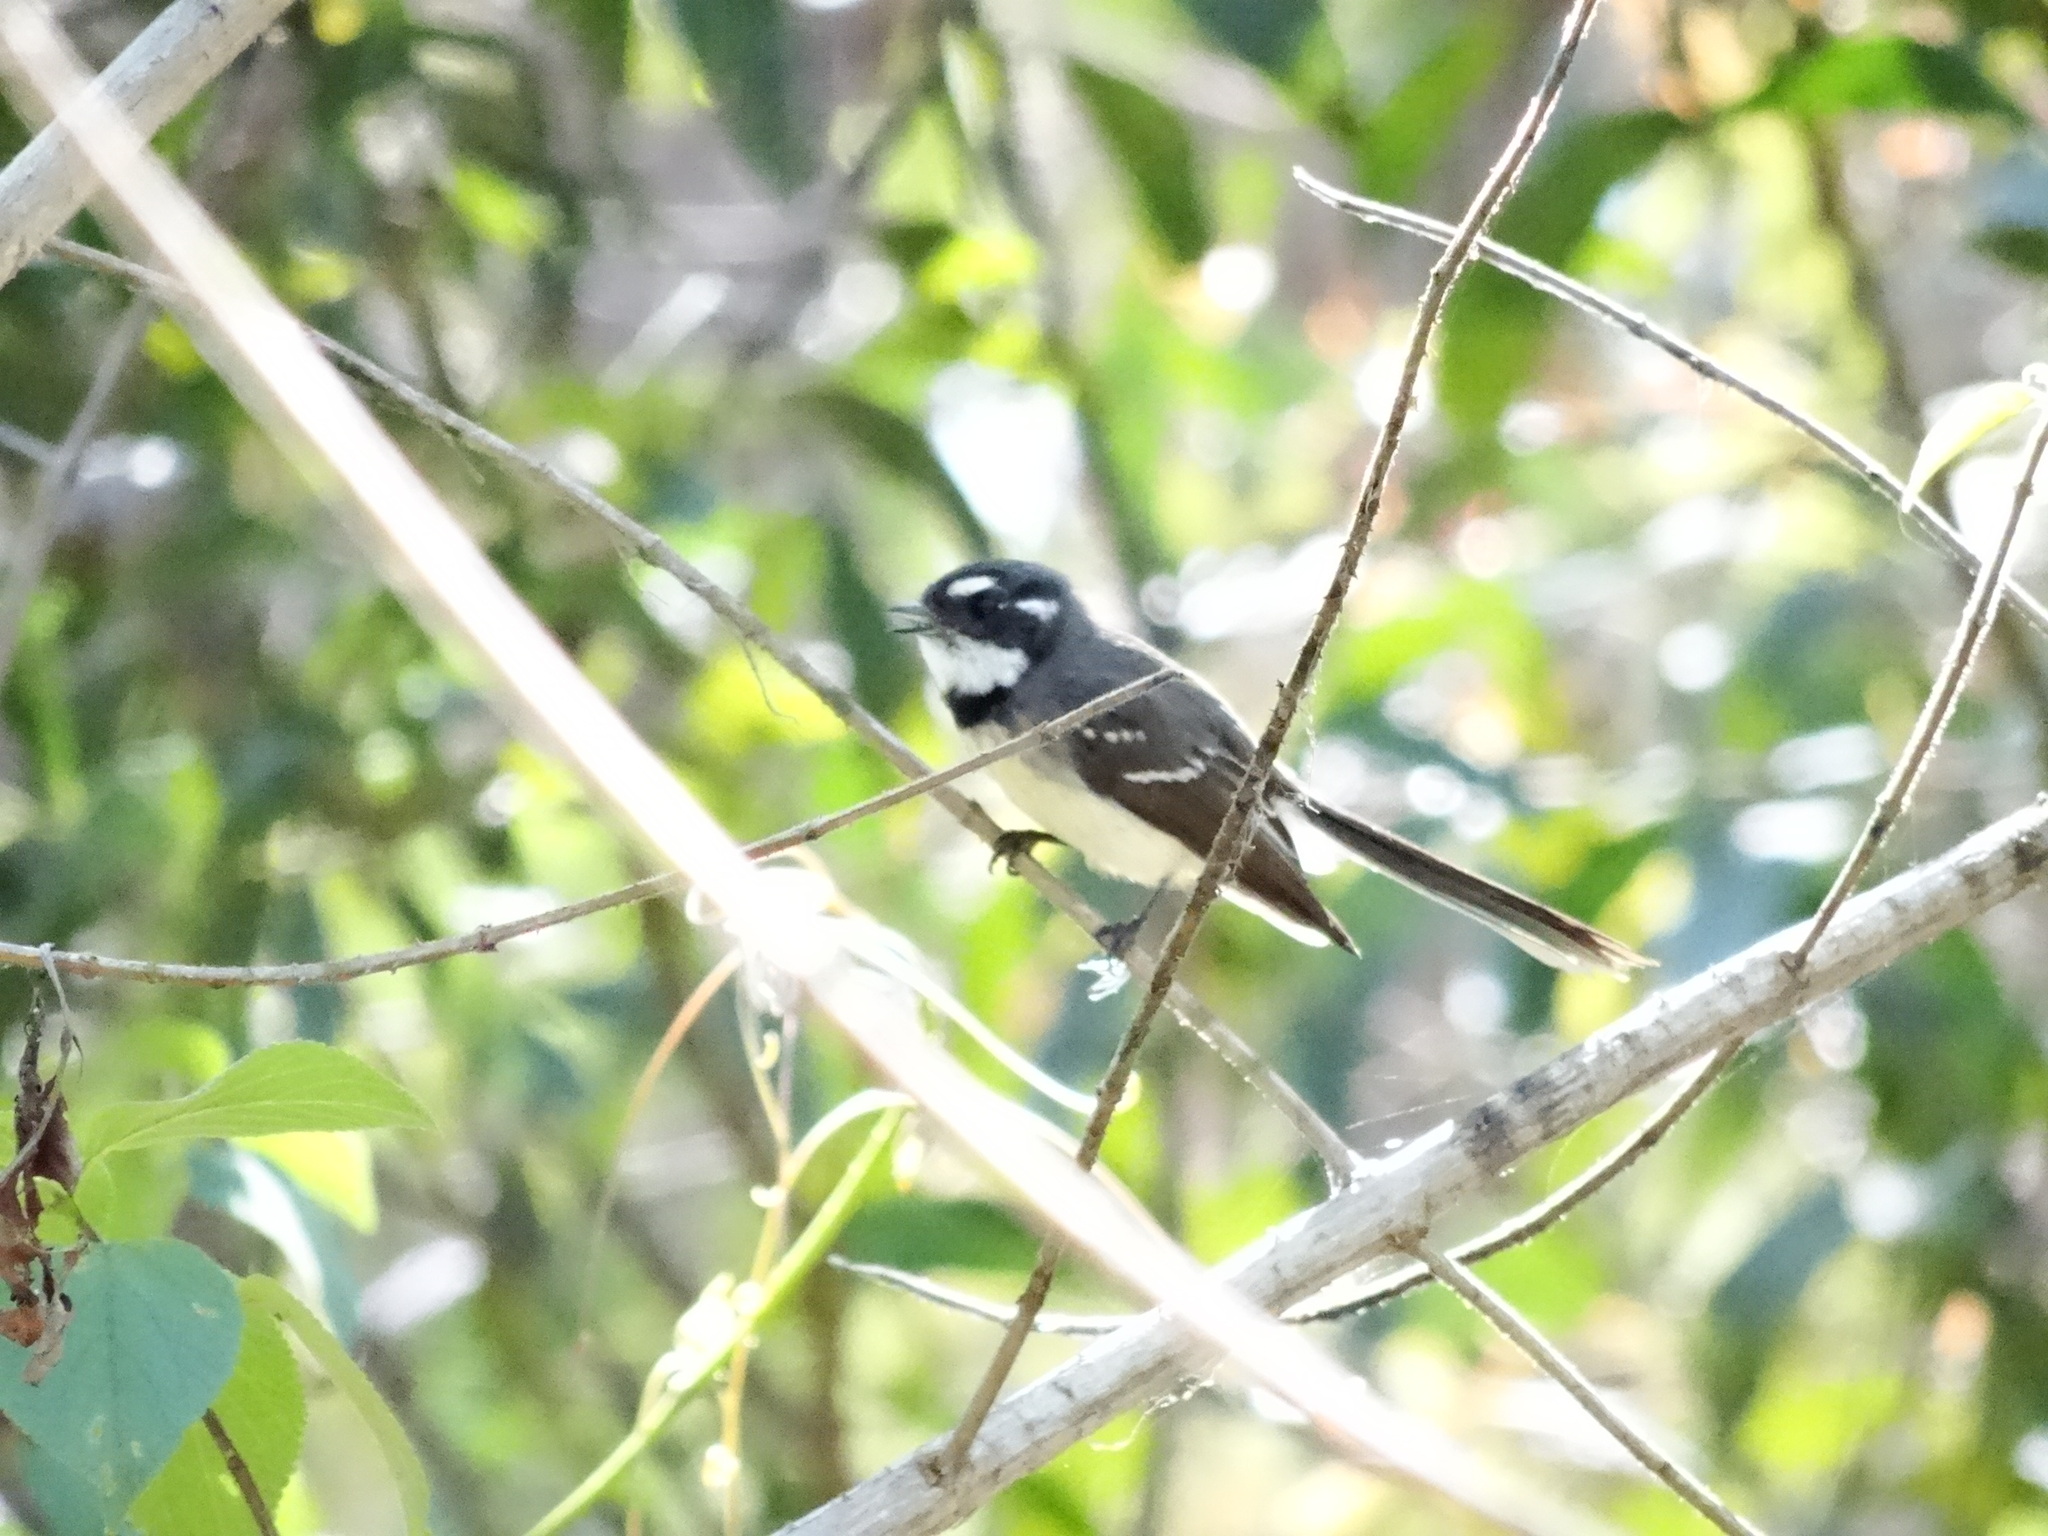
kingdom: Animalia
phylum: Chordata
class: Aves
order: Passeriformes
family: Rhipiduridae
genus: Rhipidura
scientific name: Rhipidura albiscapa
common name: Grey fantail
